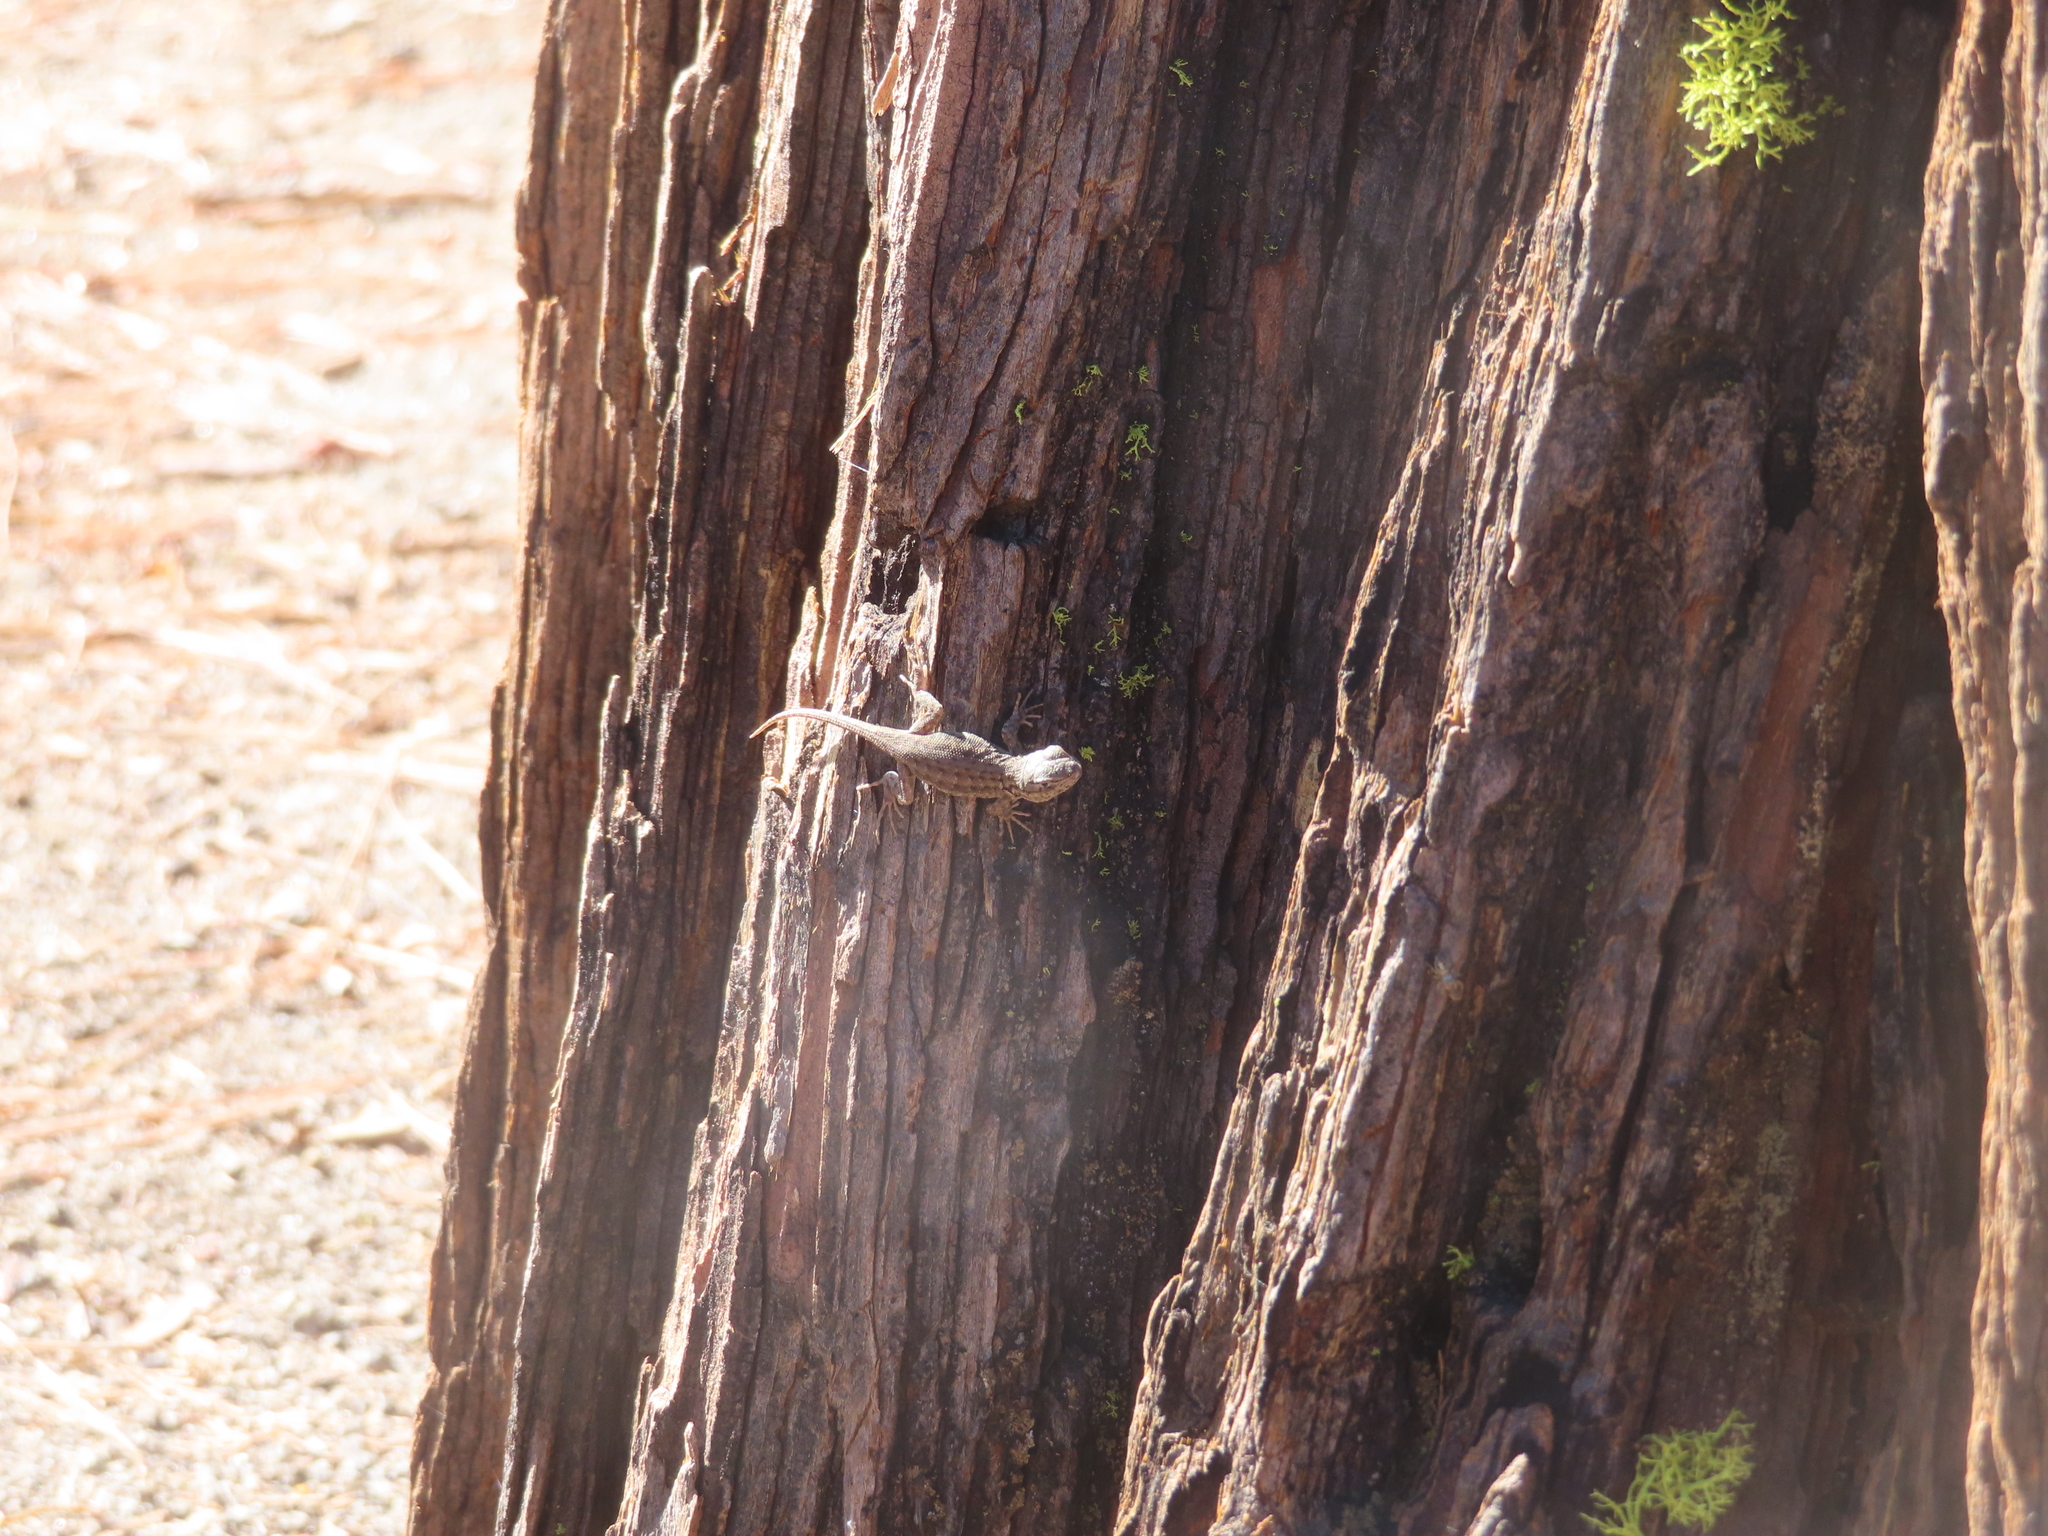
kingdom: Animalia
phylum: Chordata
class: Squamata
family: Phrynosomatidae
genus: Sceloporus
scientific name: Sceloporus graciosus
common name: Sagebrush lizard
